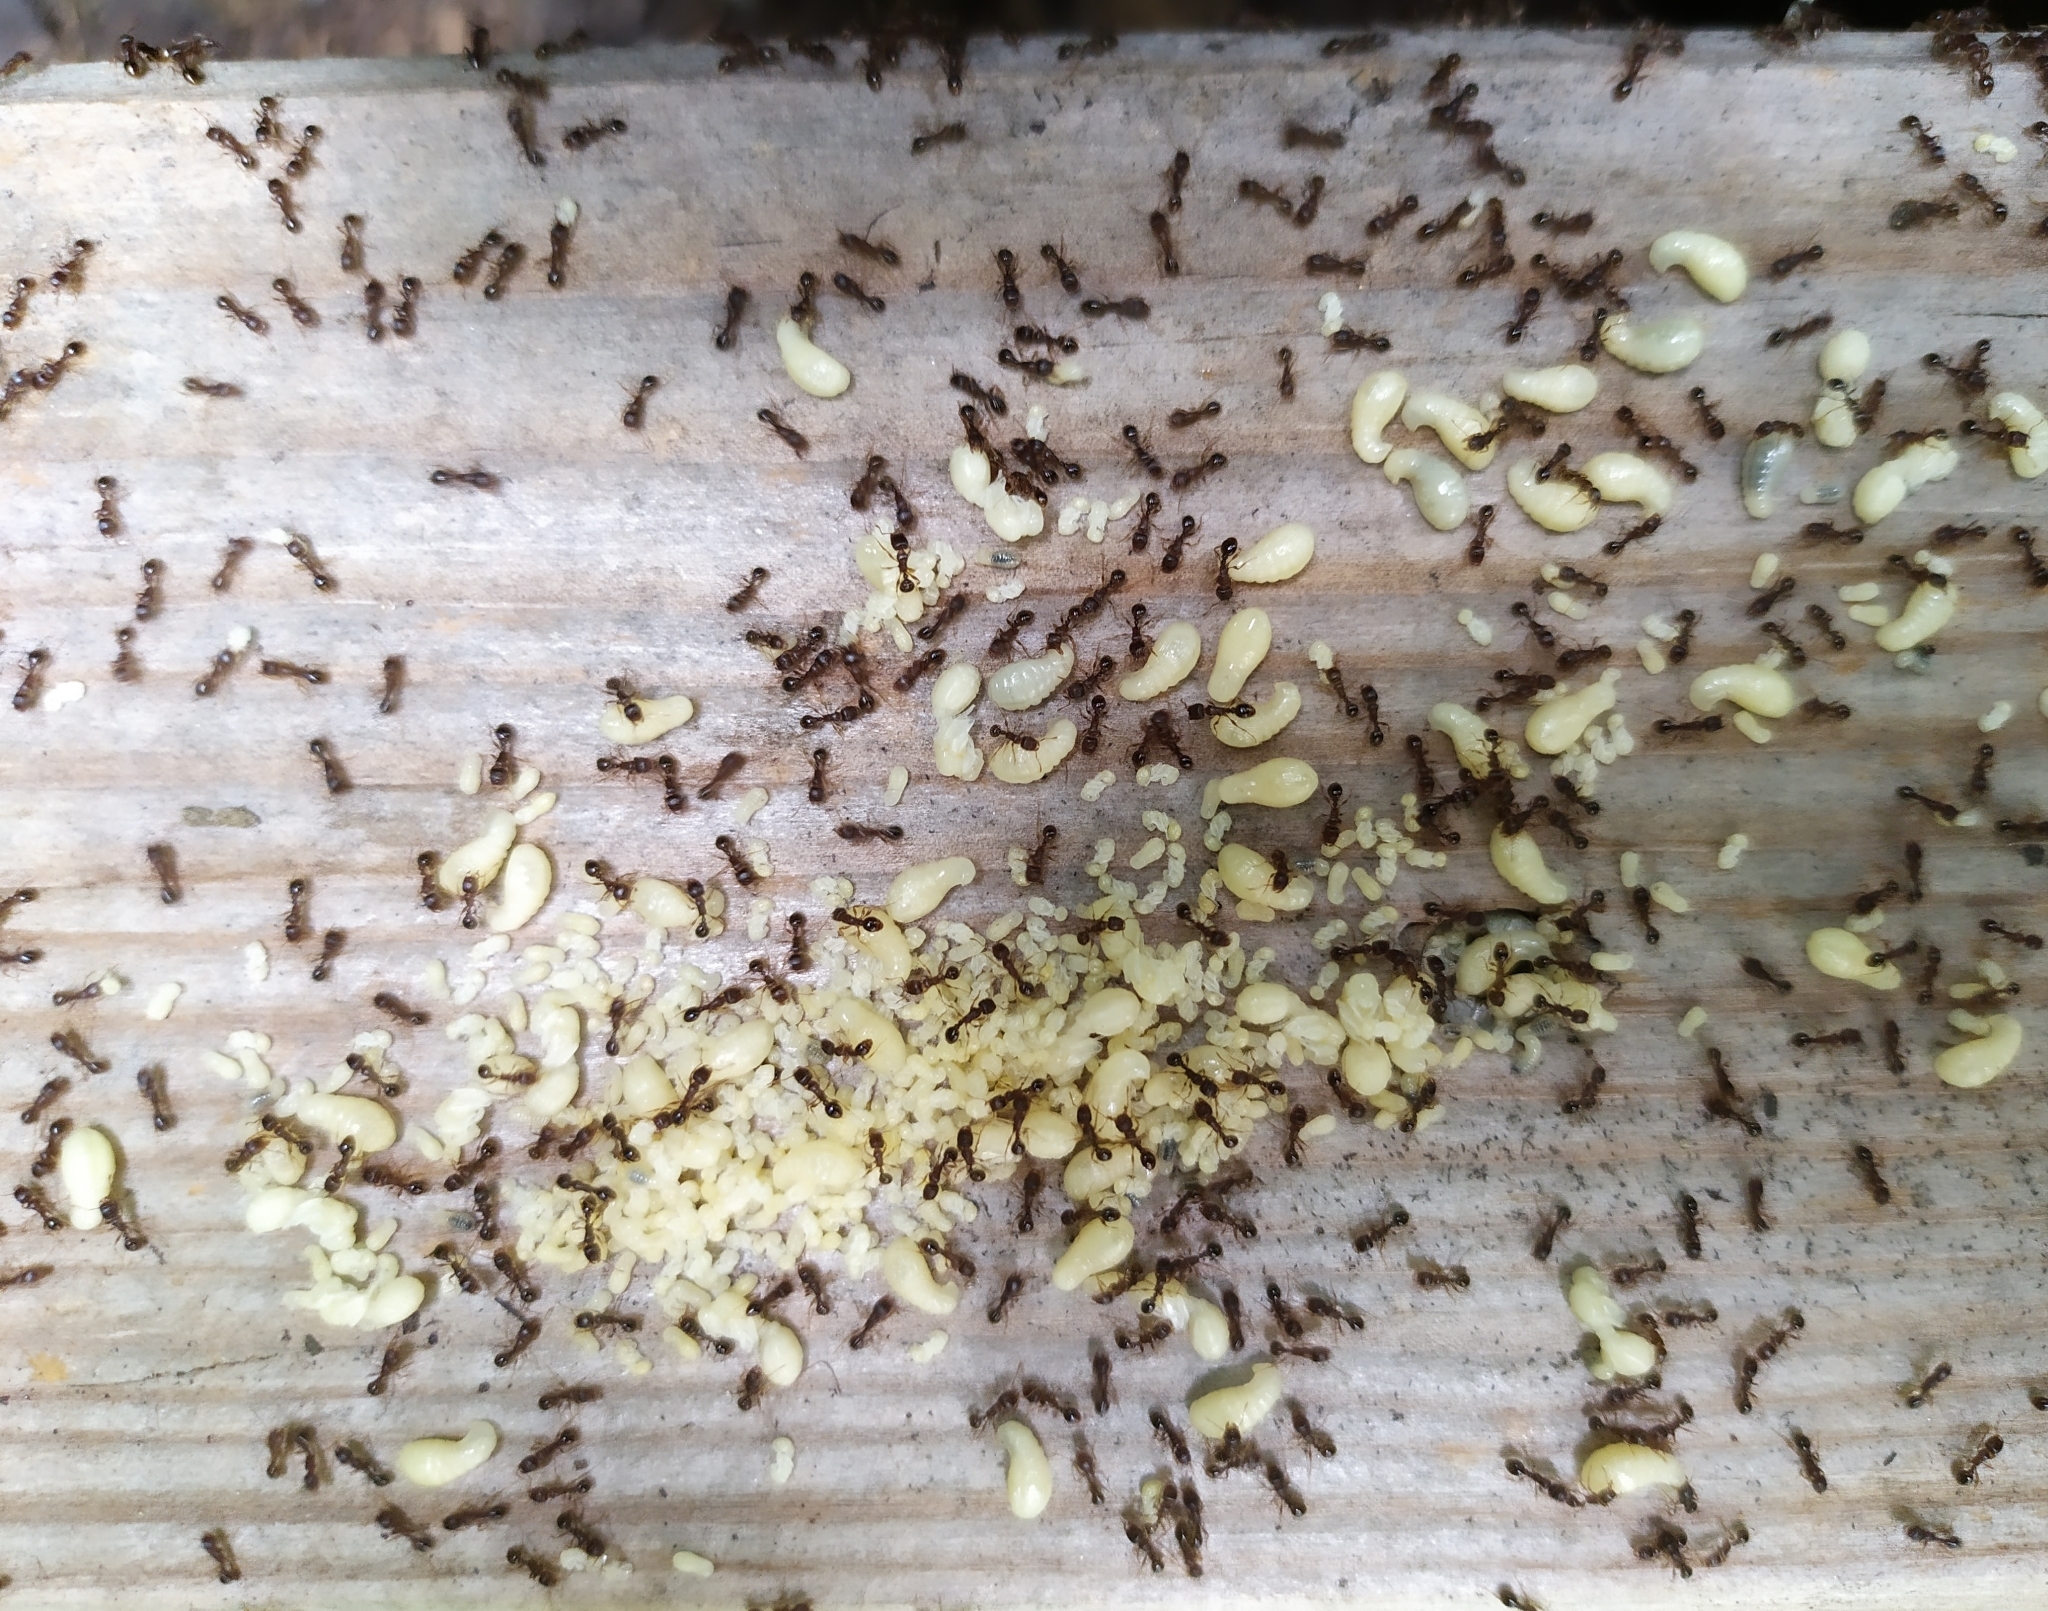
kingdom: Animalia
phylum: Arthropoda
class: Insecta
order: Hymenoptera
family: Formicidae
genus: Tetramorium
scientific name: Tetramorium
